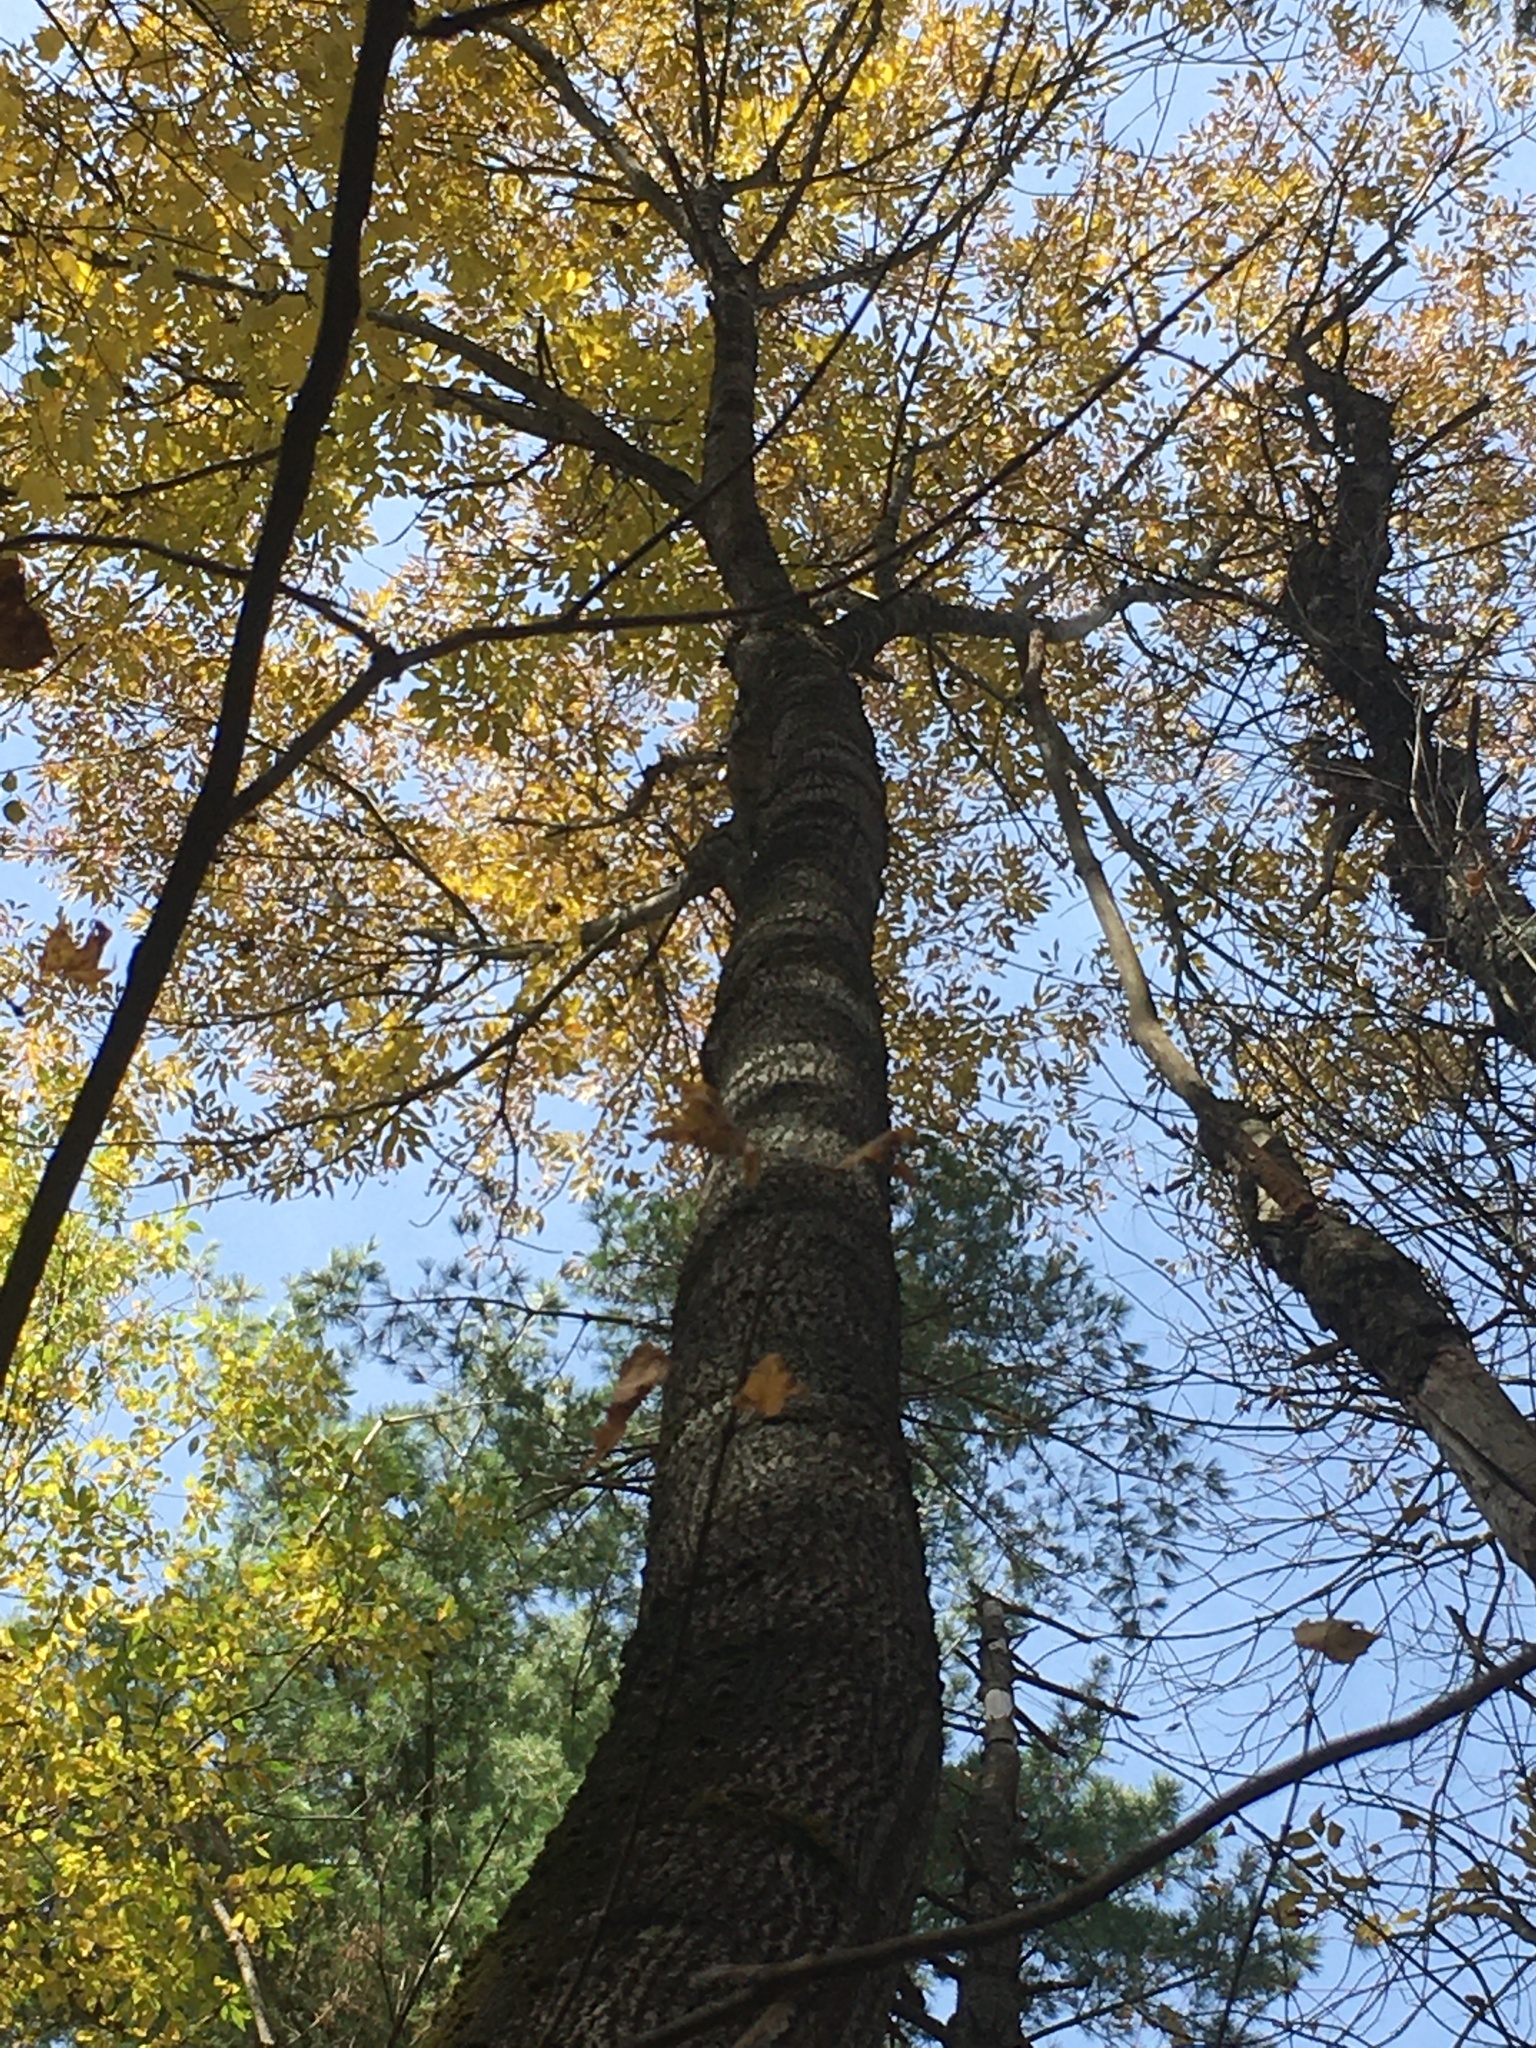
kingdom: Plantae
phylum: Tracheophyta
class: Magnoliopsida
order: Lamiales
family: Oleaceae
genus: Fraxinus
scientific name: Fraxinus americana
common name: White ash
